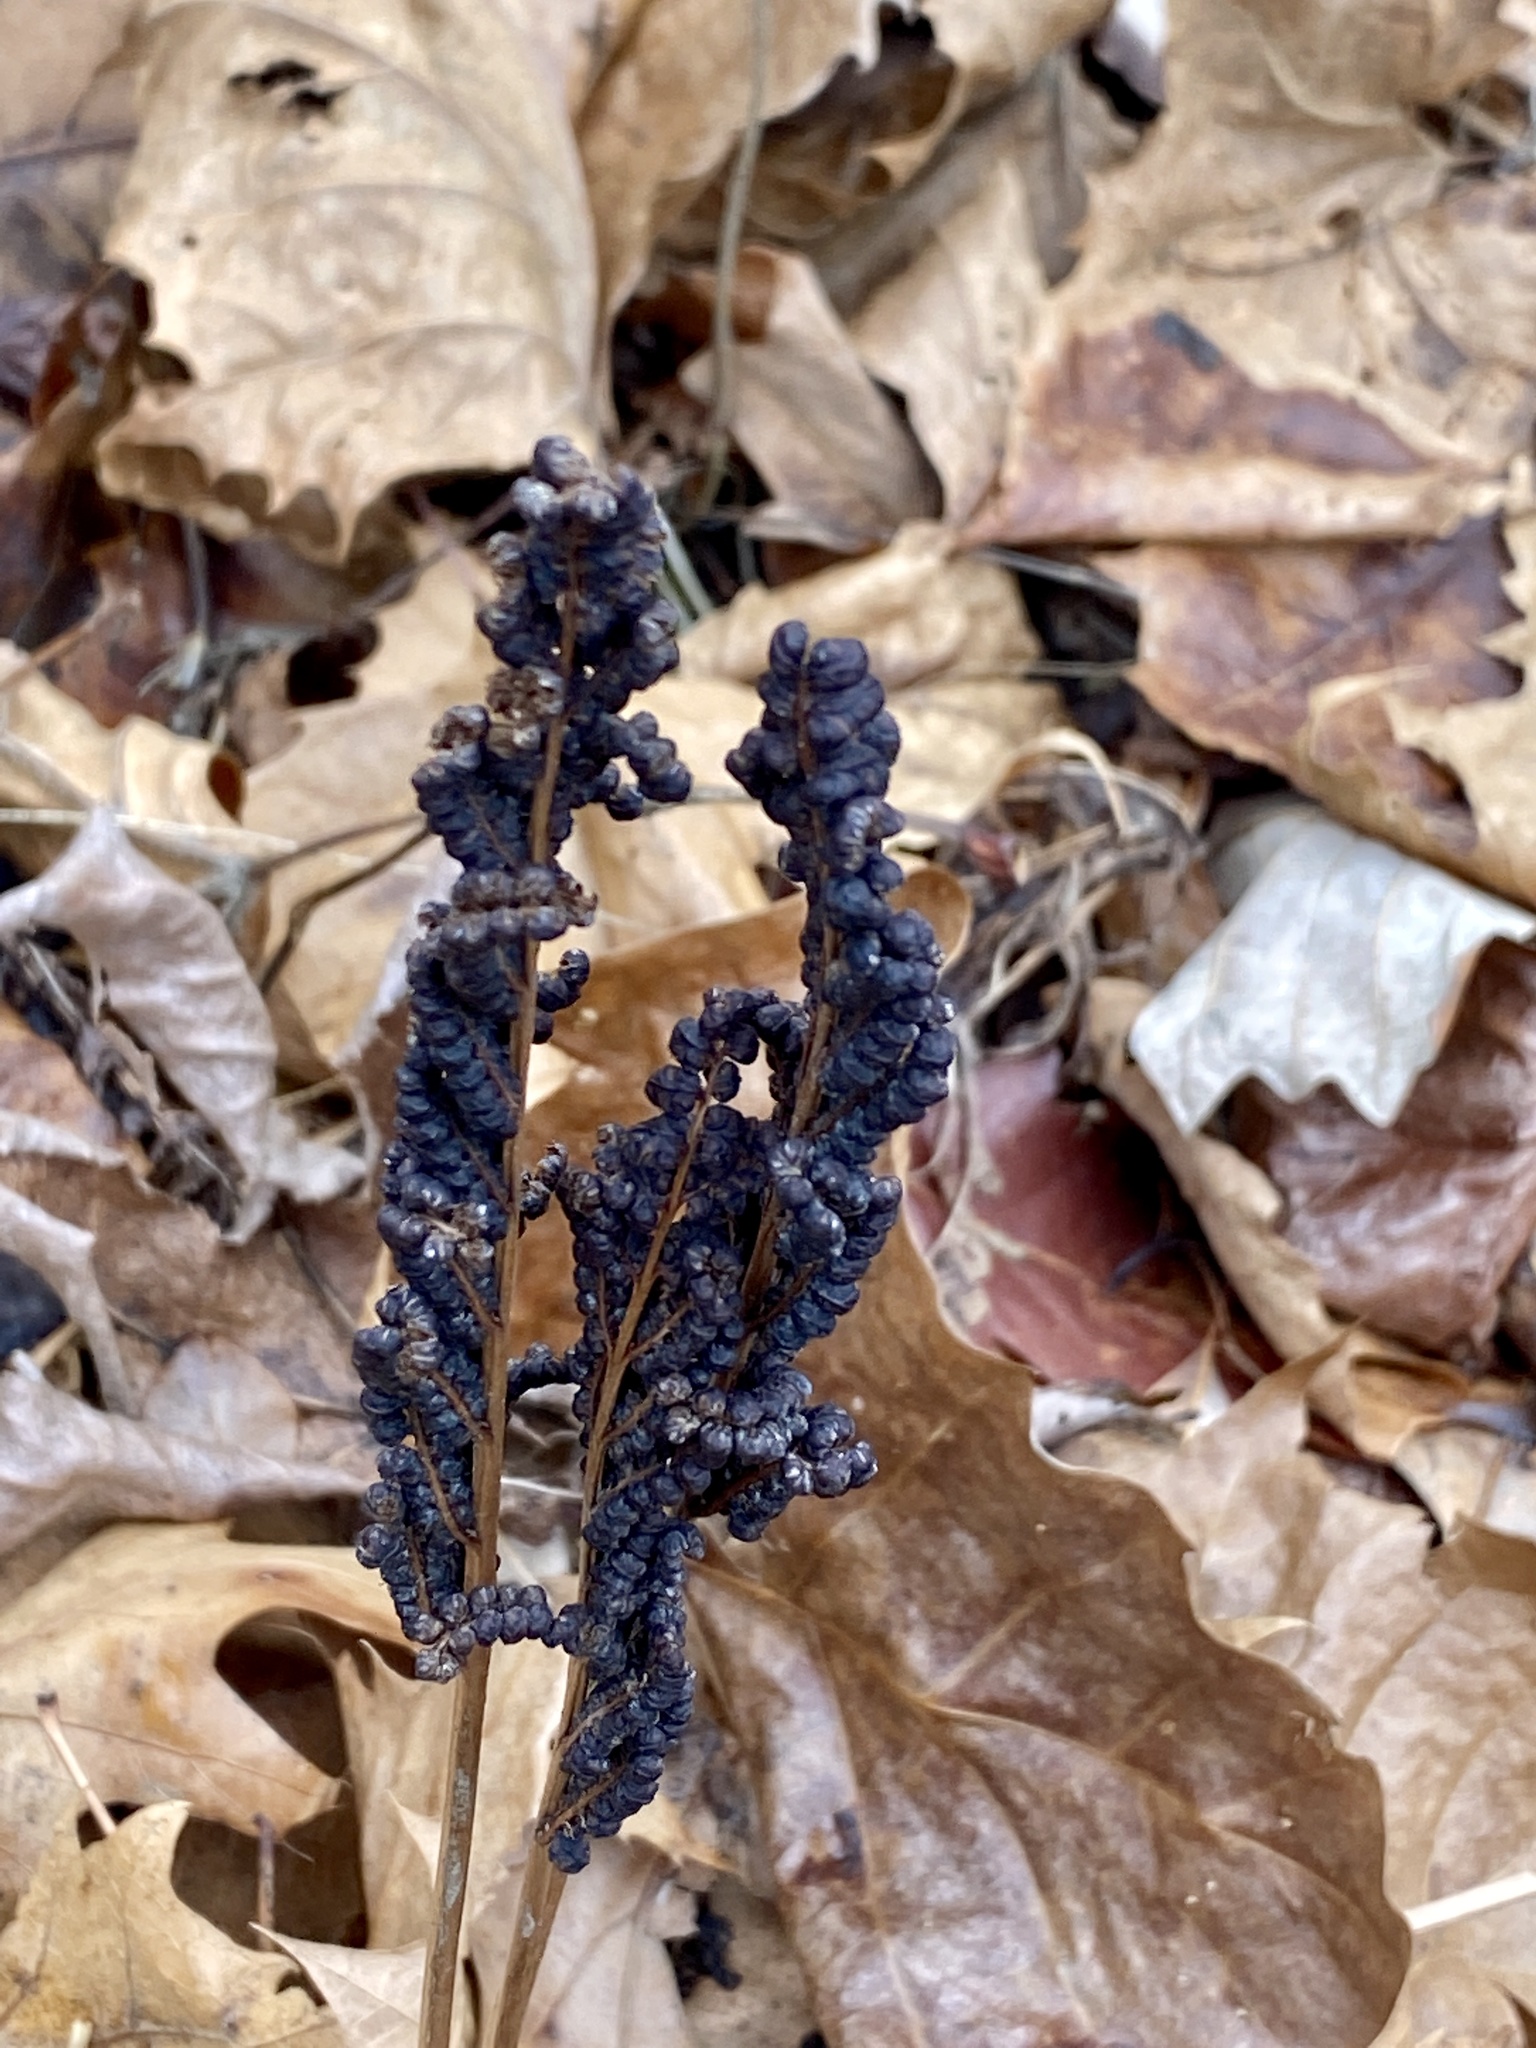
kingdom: Plantae
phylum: Tracheophyta
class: Polypodiopsida
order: Polypodiales
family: Onocleaceae
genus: Onoclea
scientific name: Onoclea sensibilis
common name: Sensitive fern
